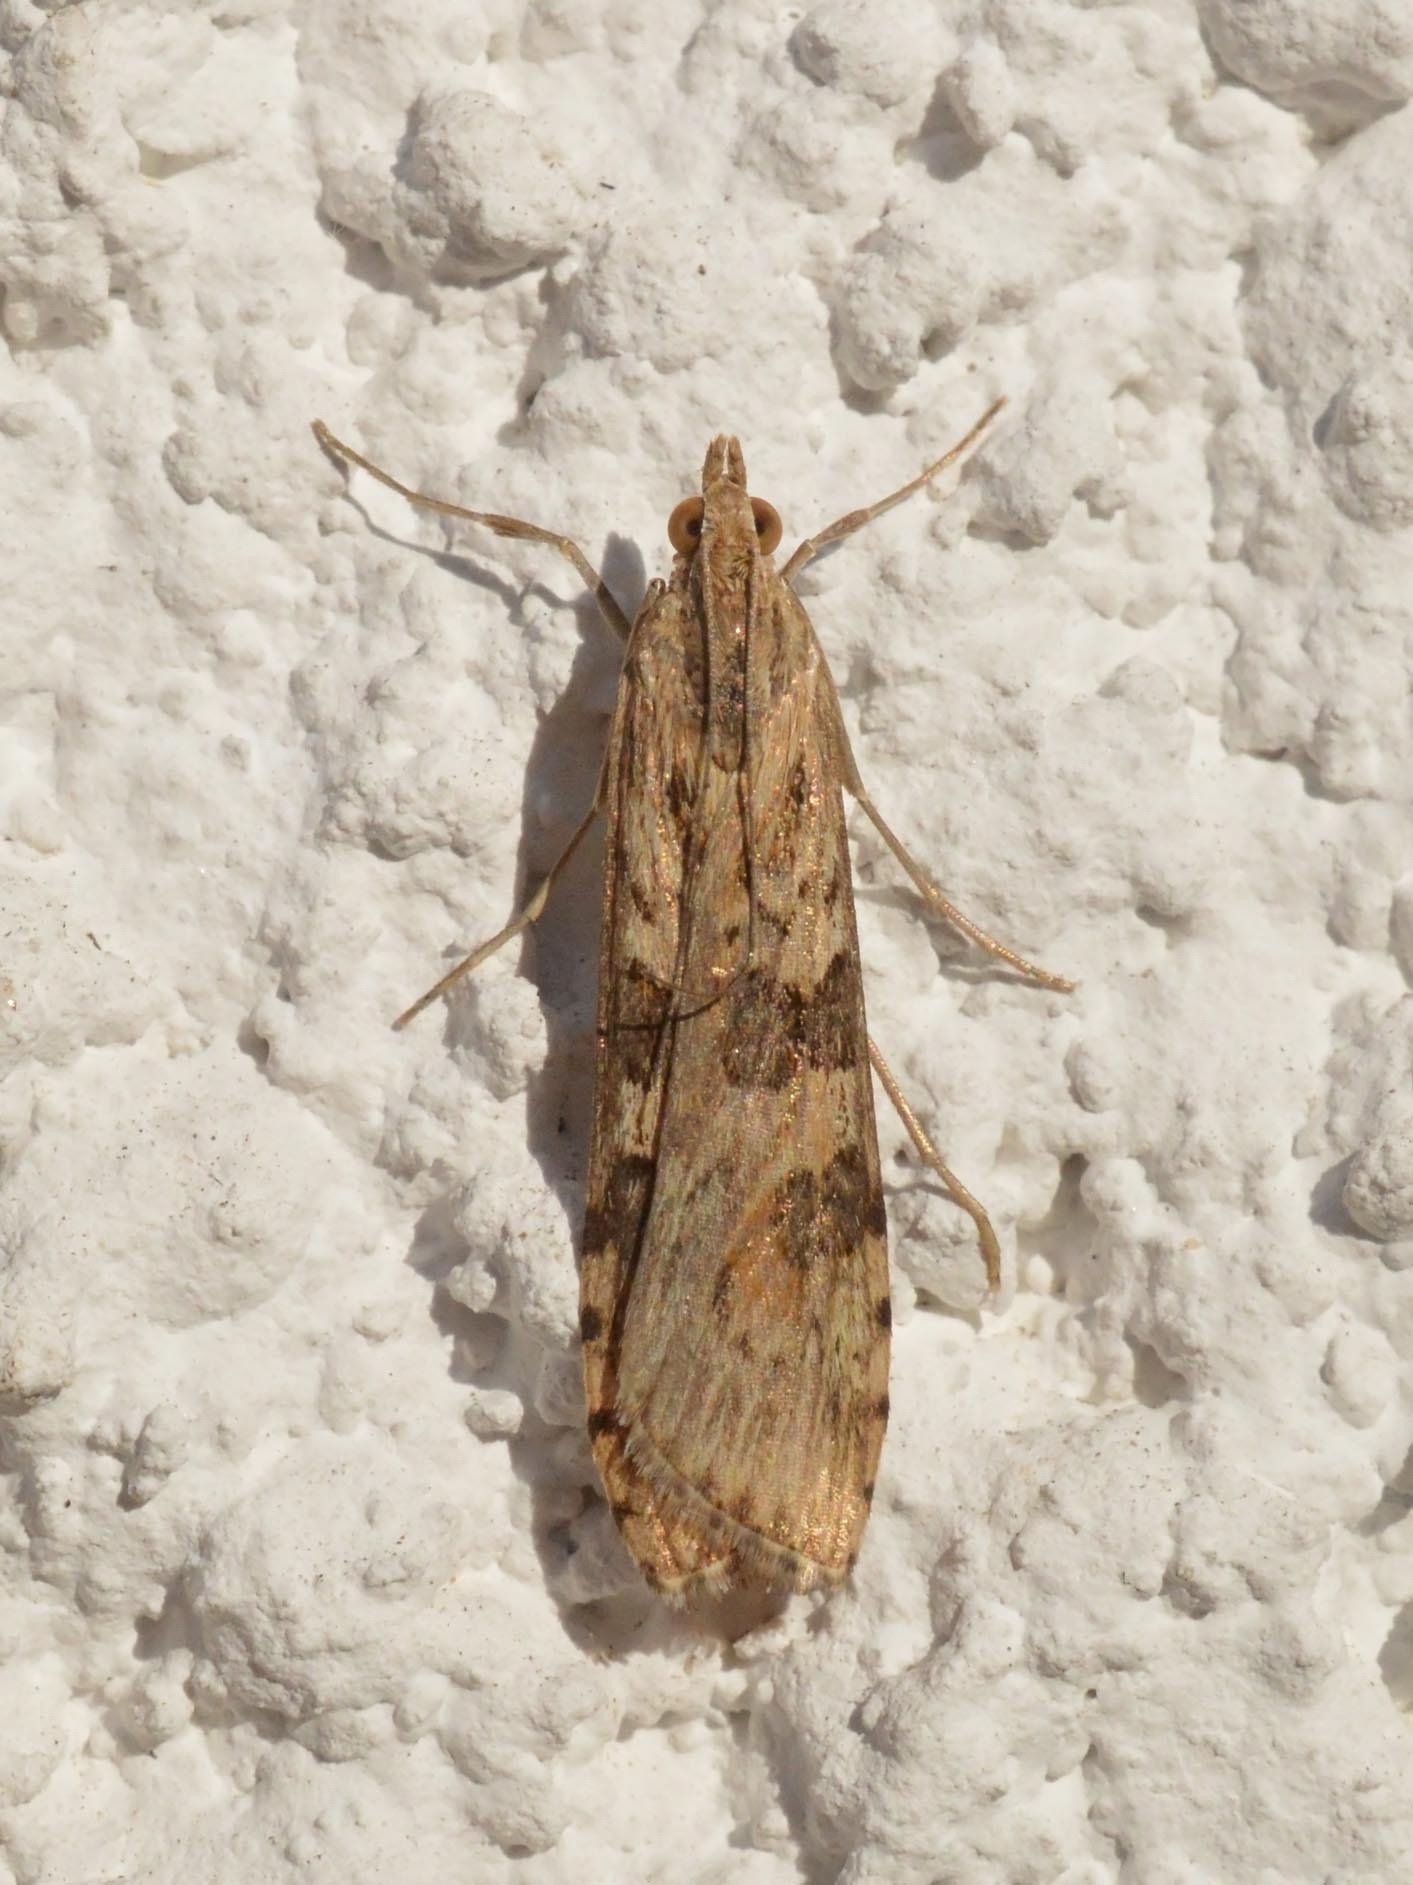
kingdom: Animalia
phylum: Arthropoda
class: Insecta
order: Lepidoptera
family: Crambidae
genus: Nomophila
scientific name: Nomophila noctuella
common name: Rush veneer
